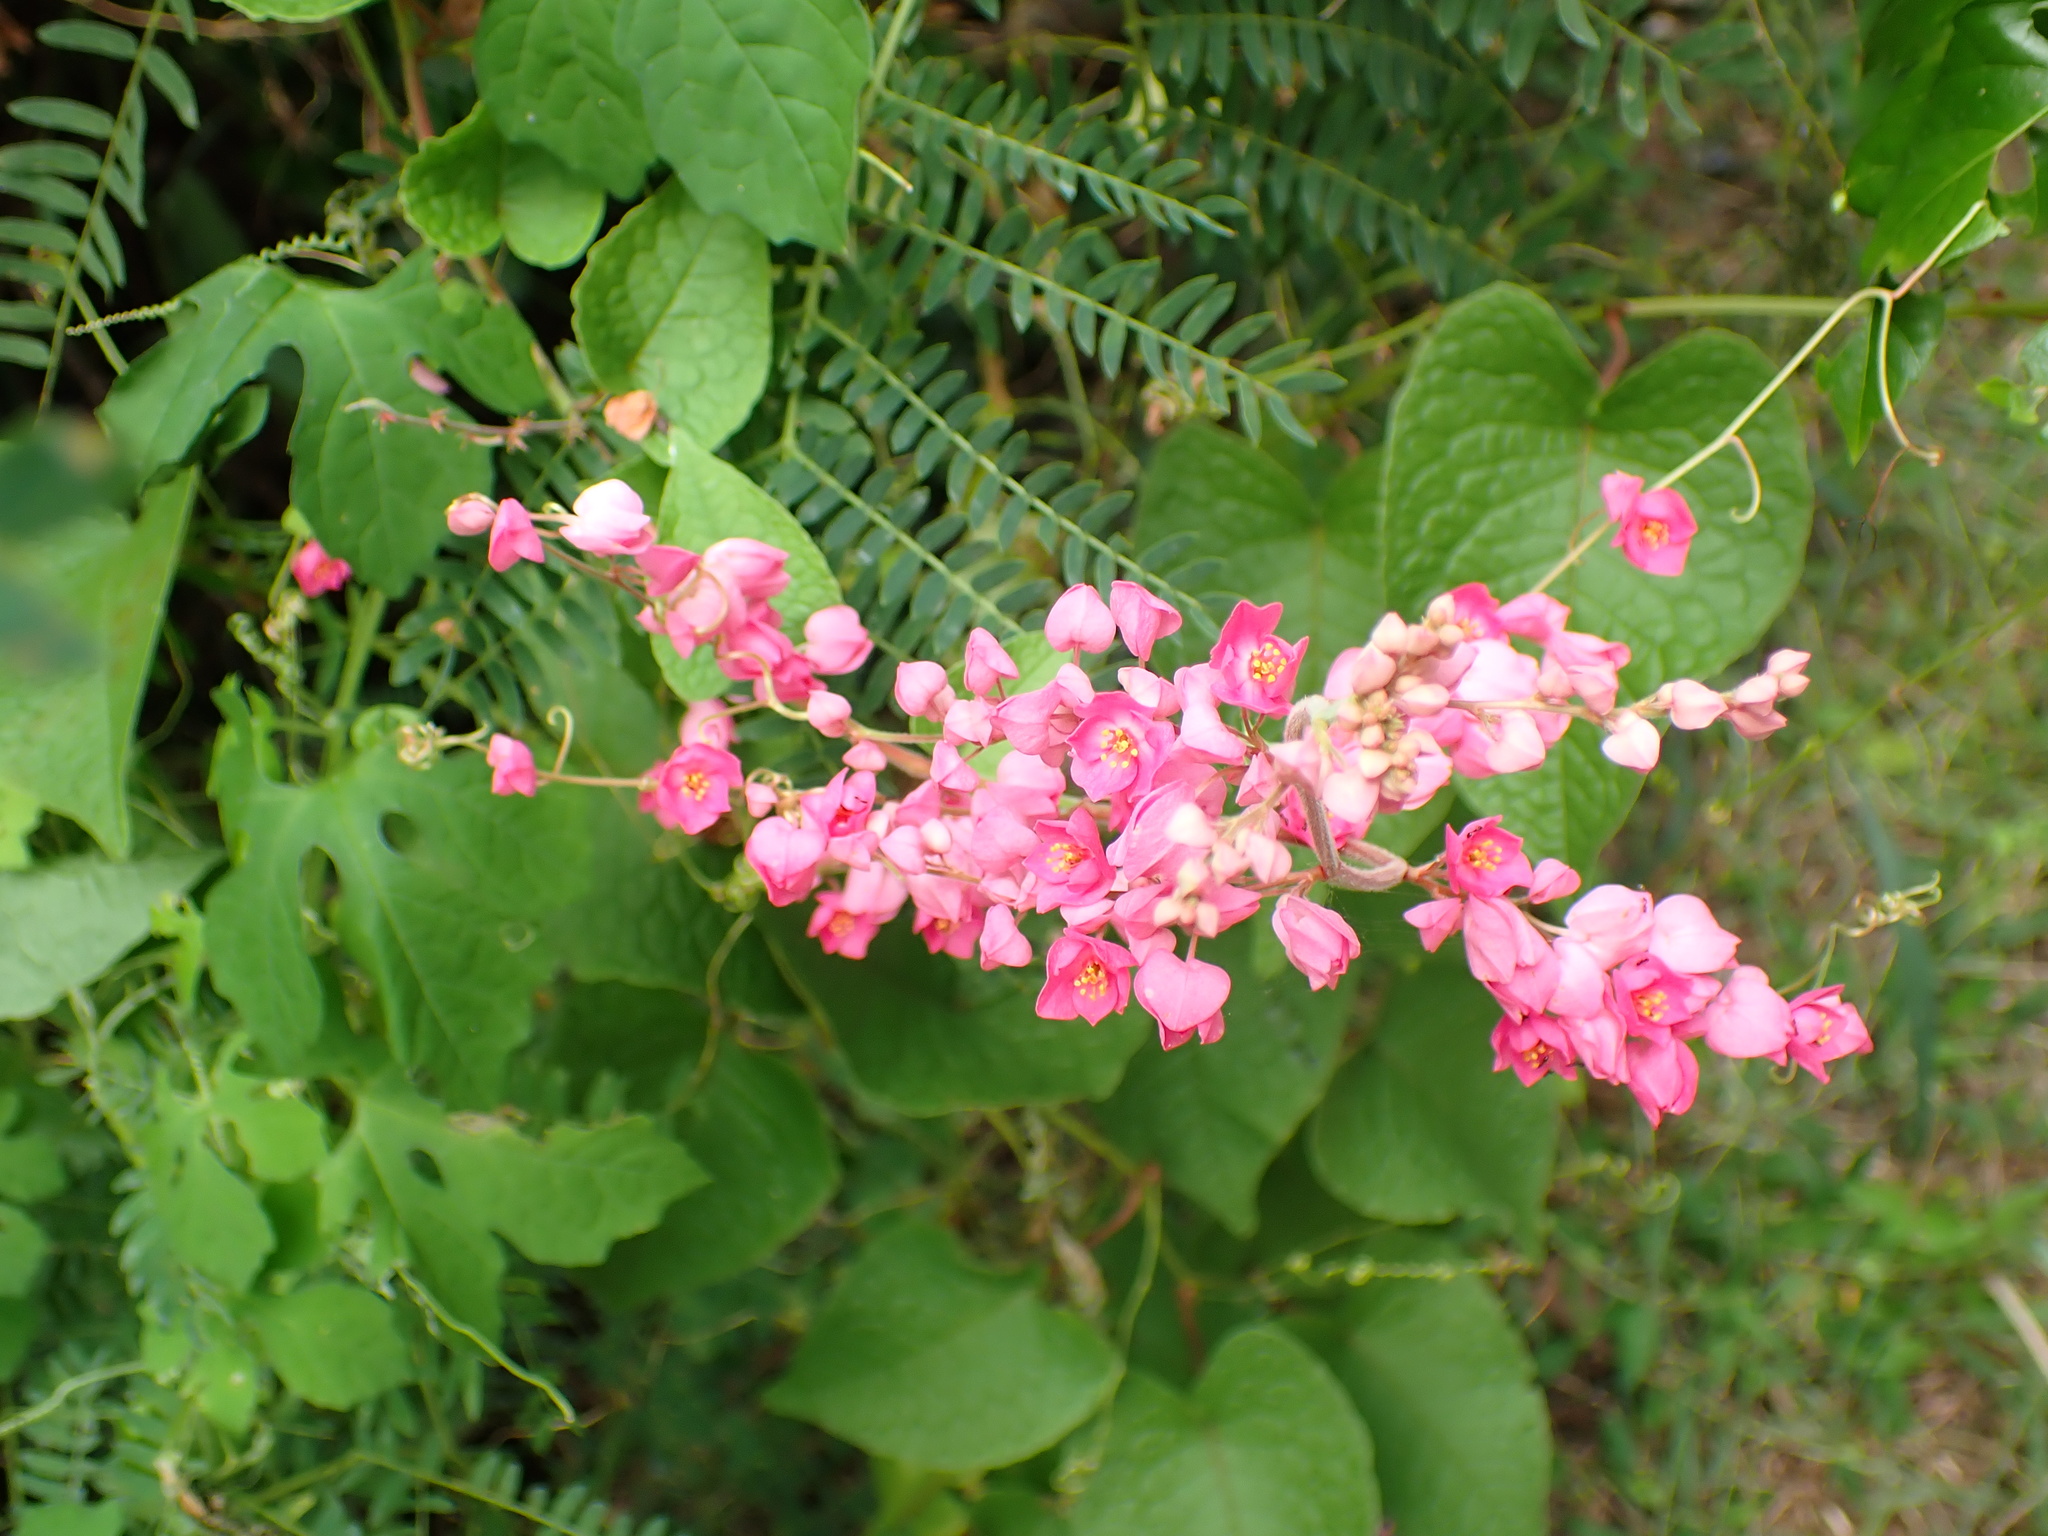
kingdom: Plantae
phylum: Tracheophyta
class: Magnoliopsida
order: Caryophyllales
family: Polygonaceae
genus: Antigonon
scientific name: Antigonon leptopus
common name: Coral vine
